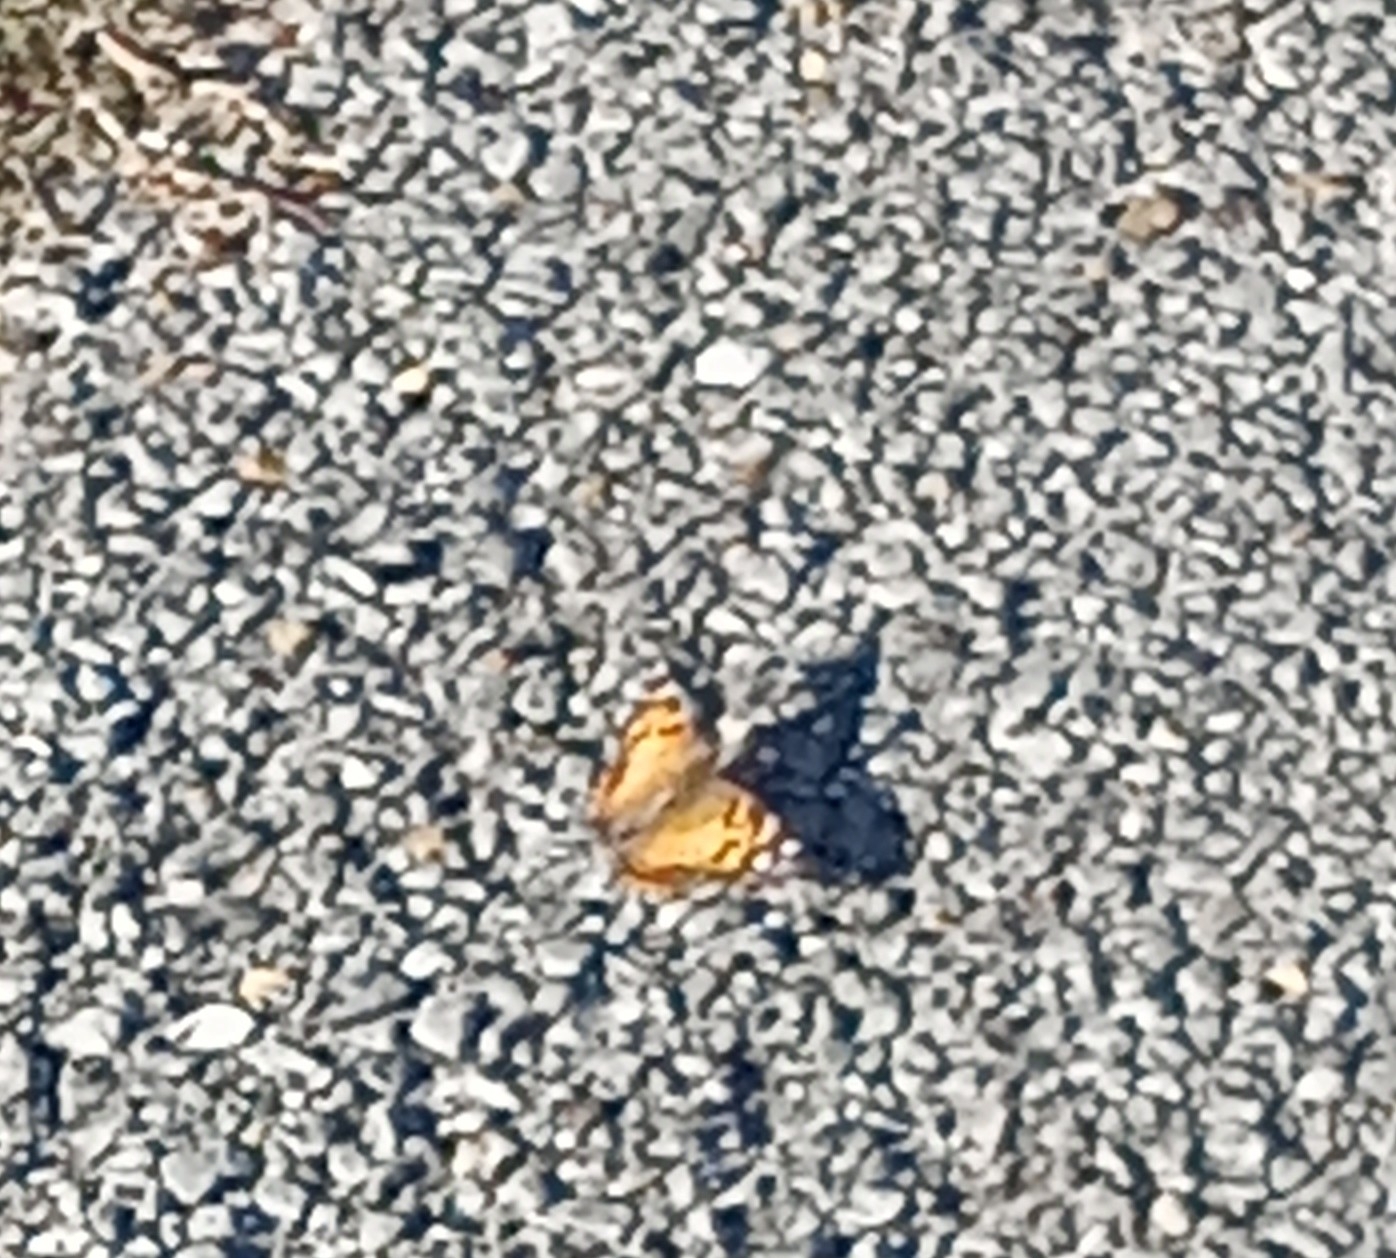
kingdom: Animalia
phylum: Arthropoda
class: Insecta
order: Lepidoptera
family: Nymphalidae
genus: Vanessa
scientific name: Vanessa virginiensis
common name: American lady
